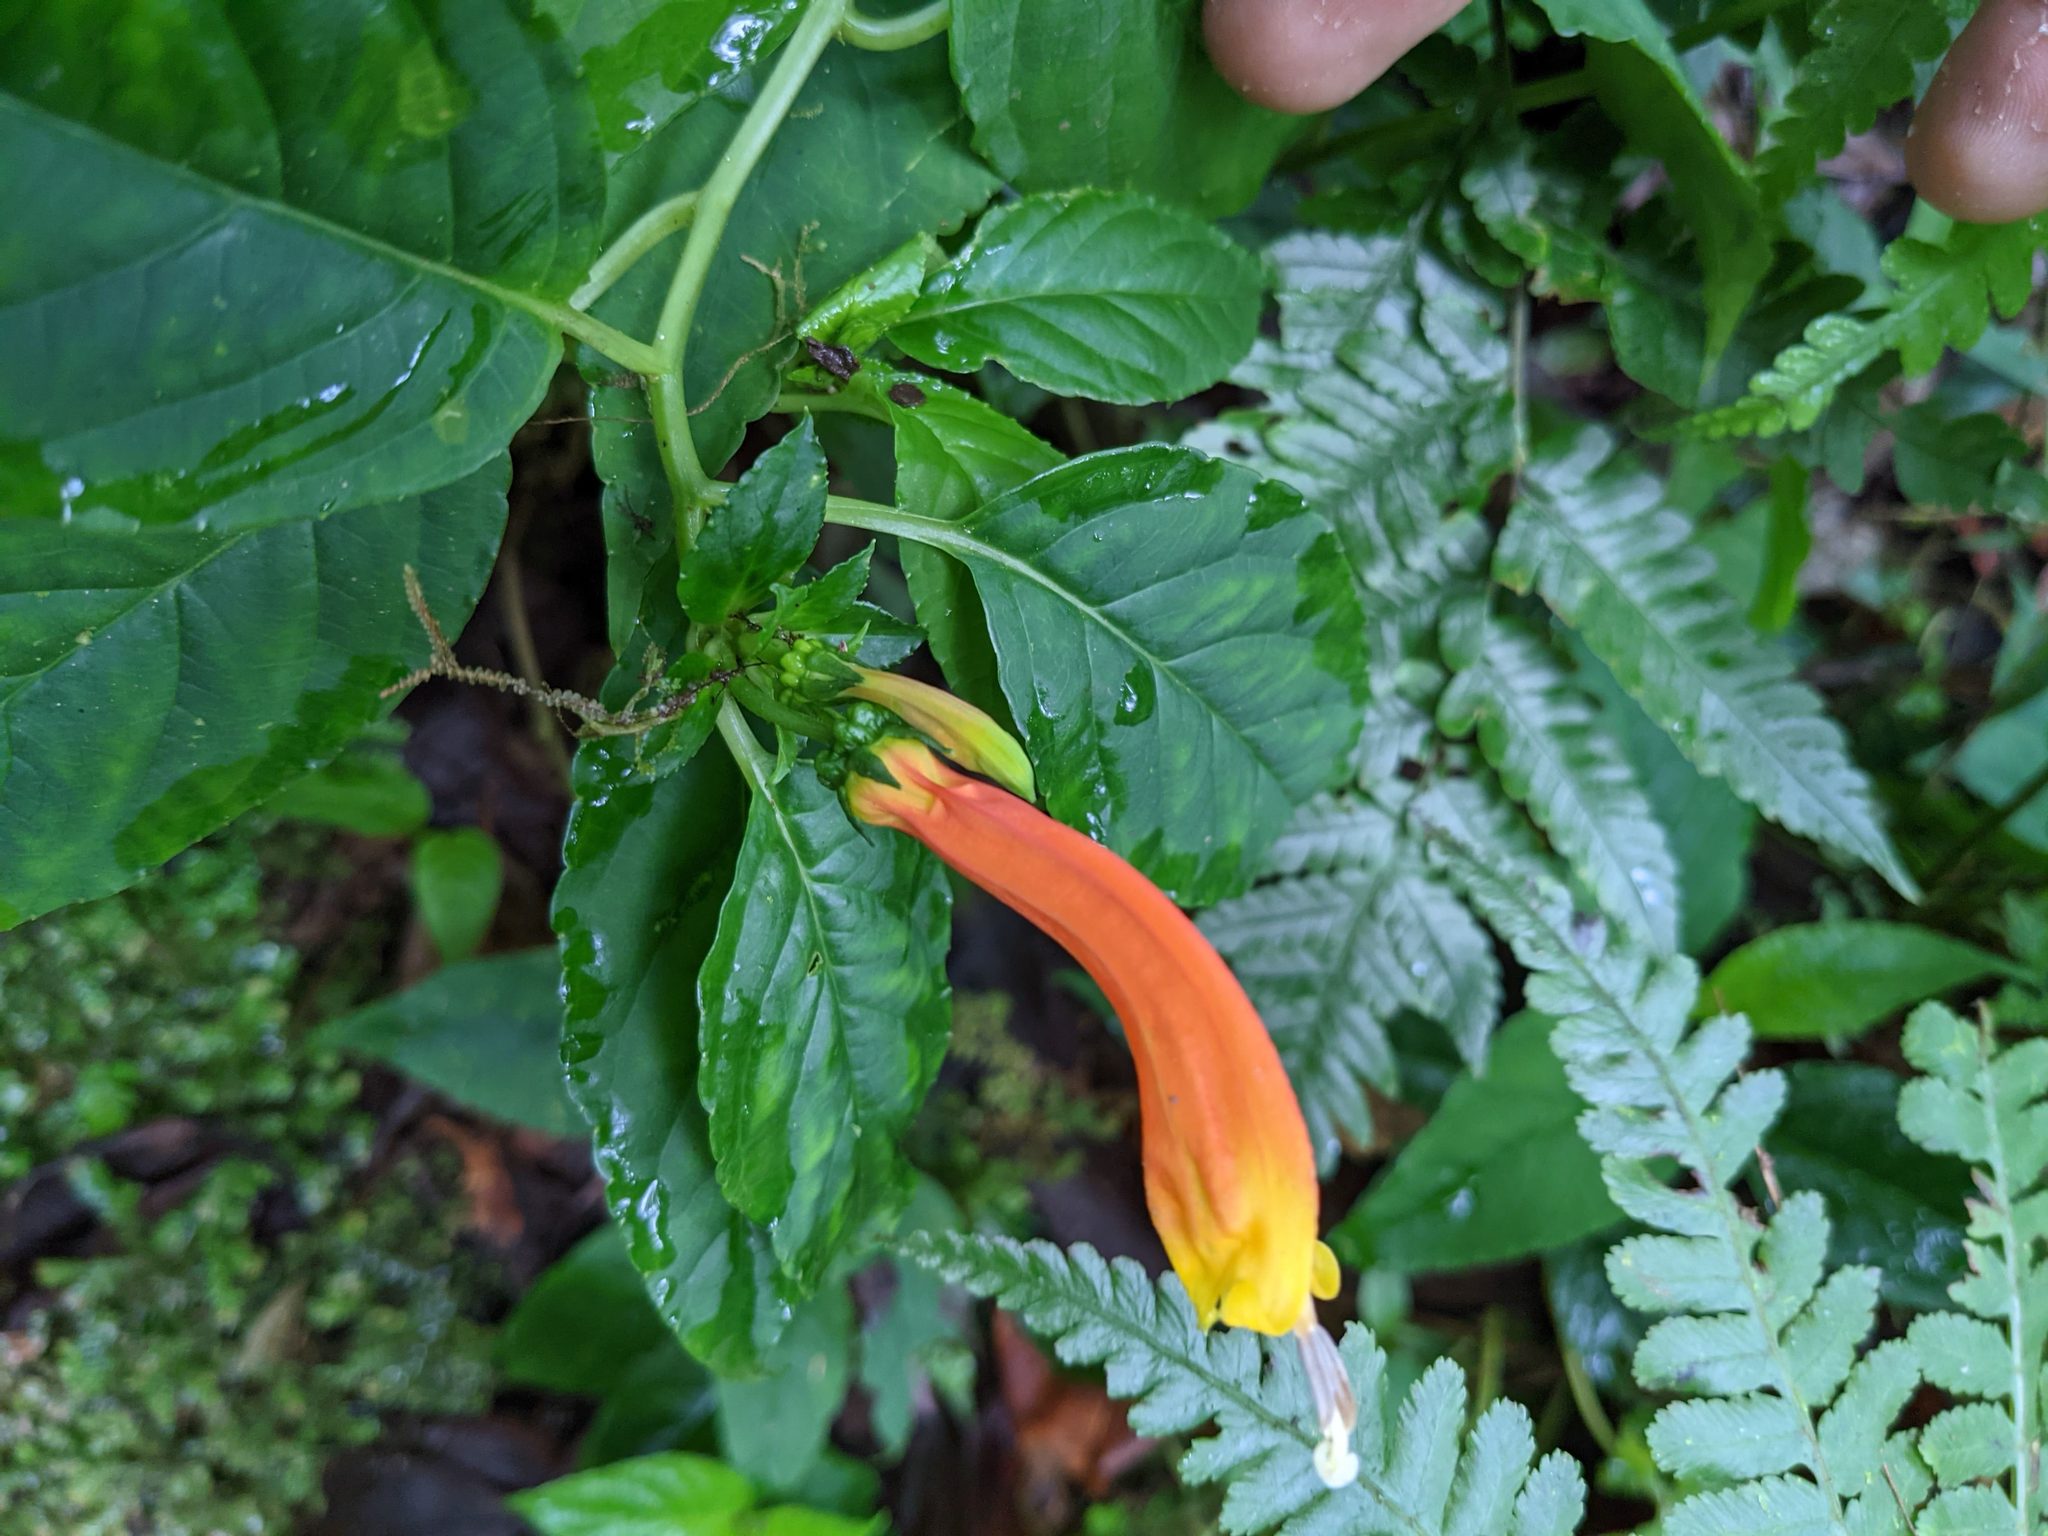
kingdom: Plantae
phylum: Tracheophyta
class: Magnoliopsida
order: Asterales
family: Campanulaceae
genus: Centropogon
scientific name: Centropogon solanifolius
